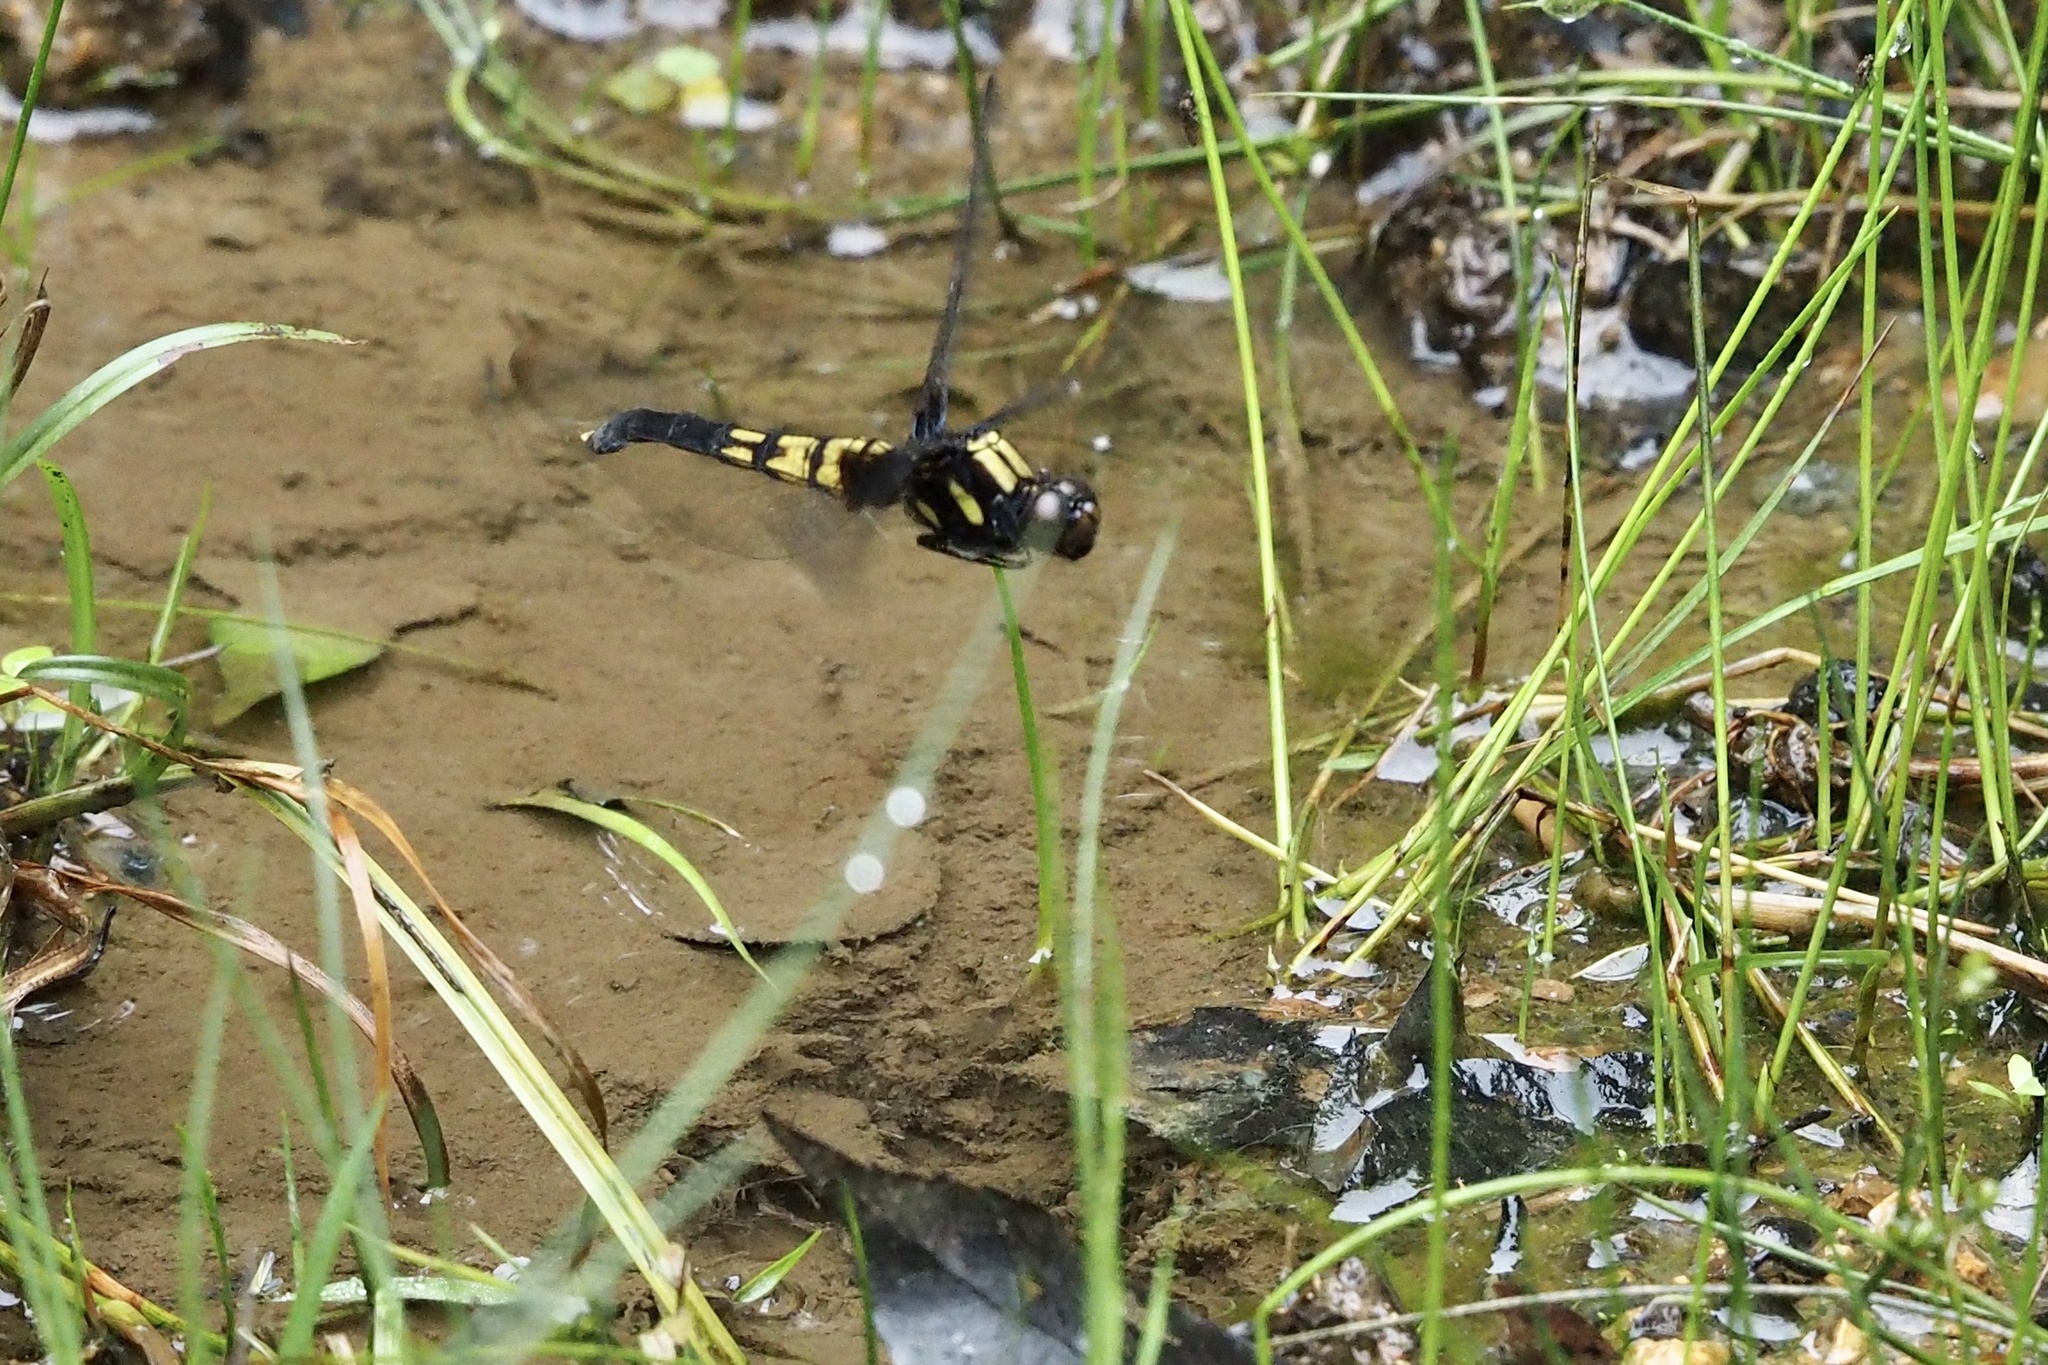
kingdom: Animalia
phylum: Arthropoda
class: Insecta
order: Odonata
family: Libellulidae
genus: Orthetrum
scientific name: Orthetrum melania
